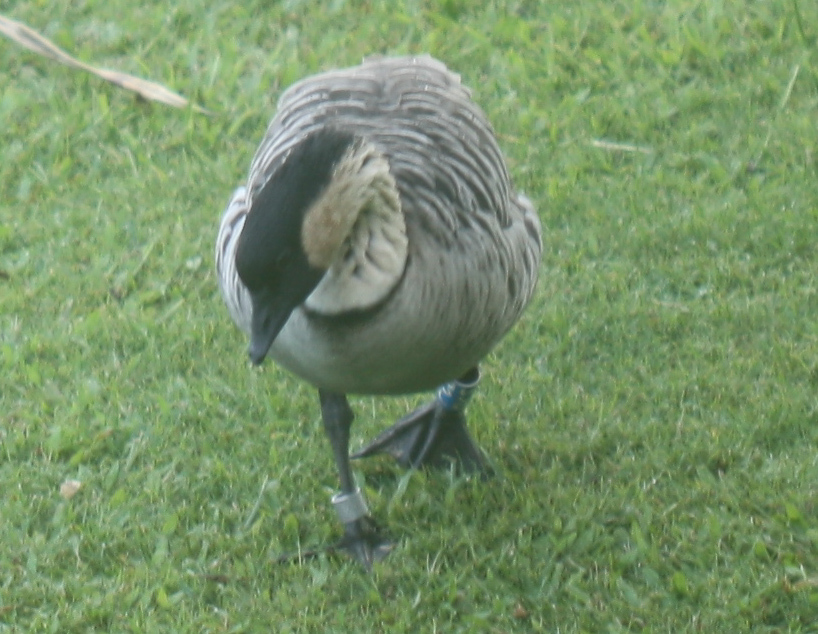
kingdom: Animalia
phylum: Chordata
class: Aves
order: Anseriformes
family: Anatidae
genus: Branta
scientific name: Branta sandvicensis
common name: Nene
